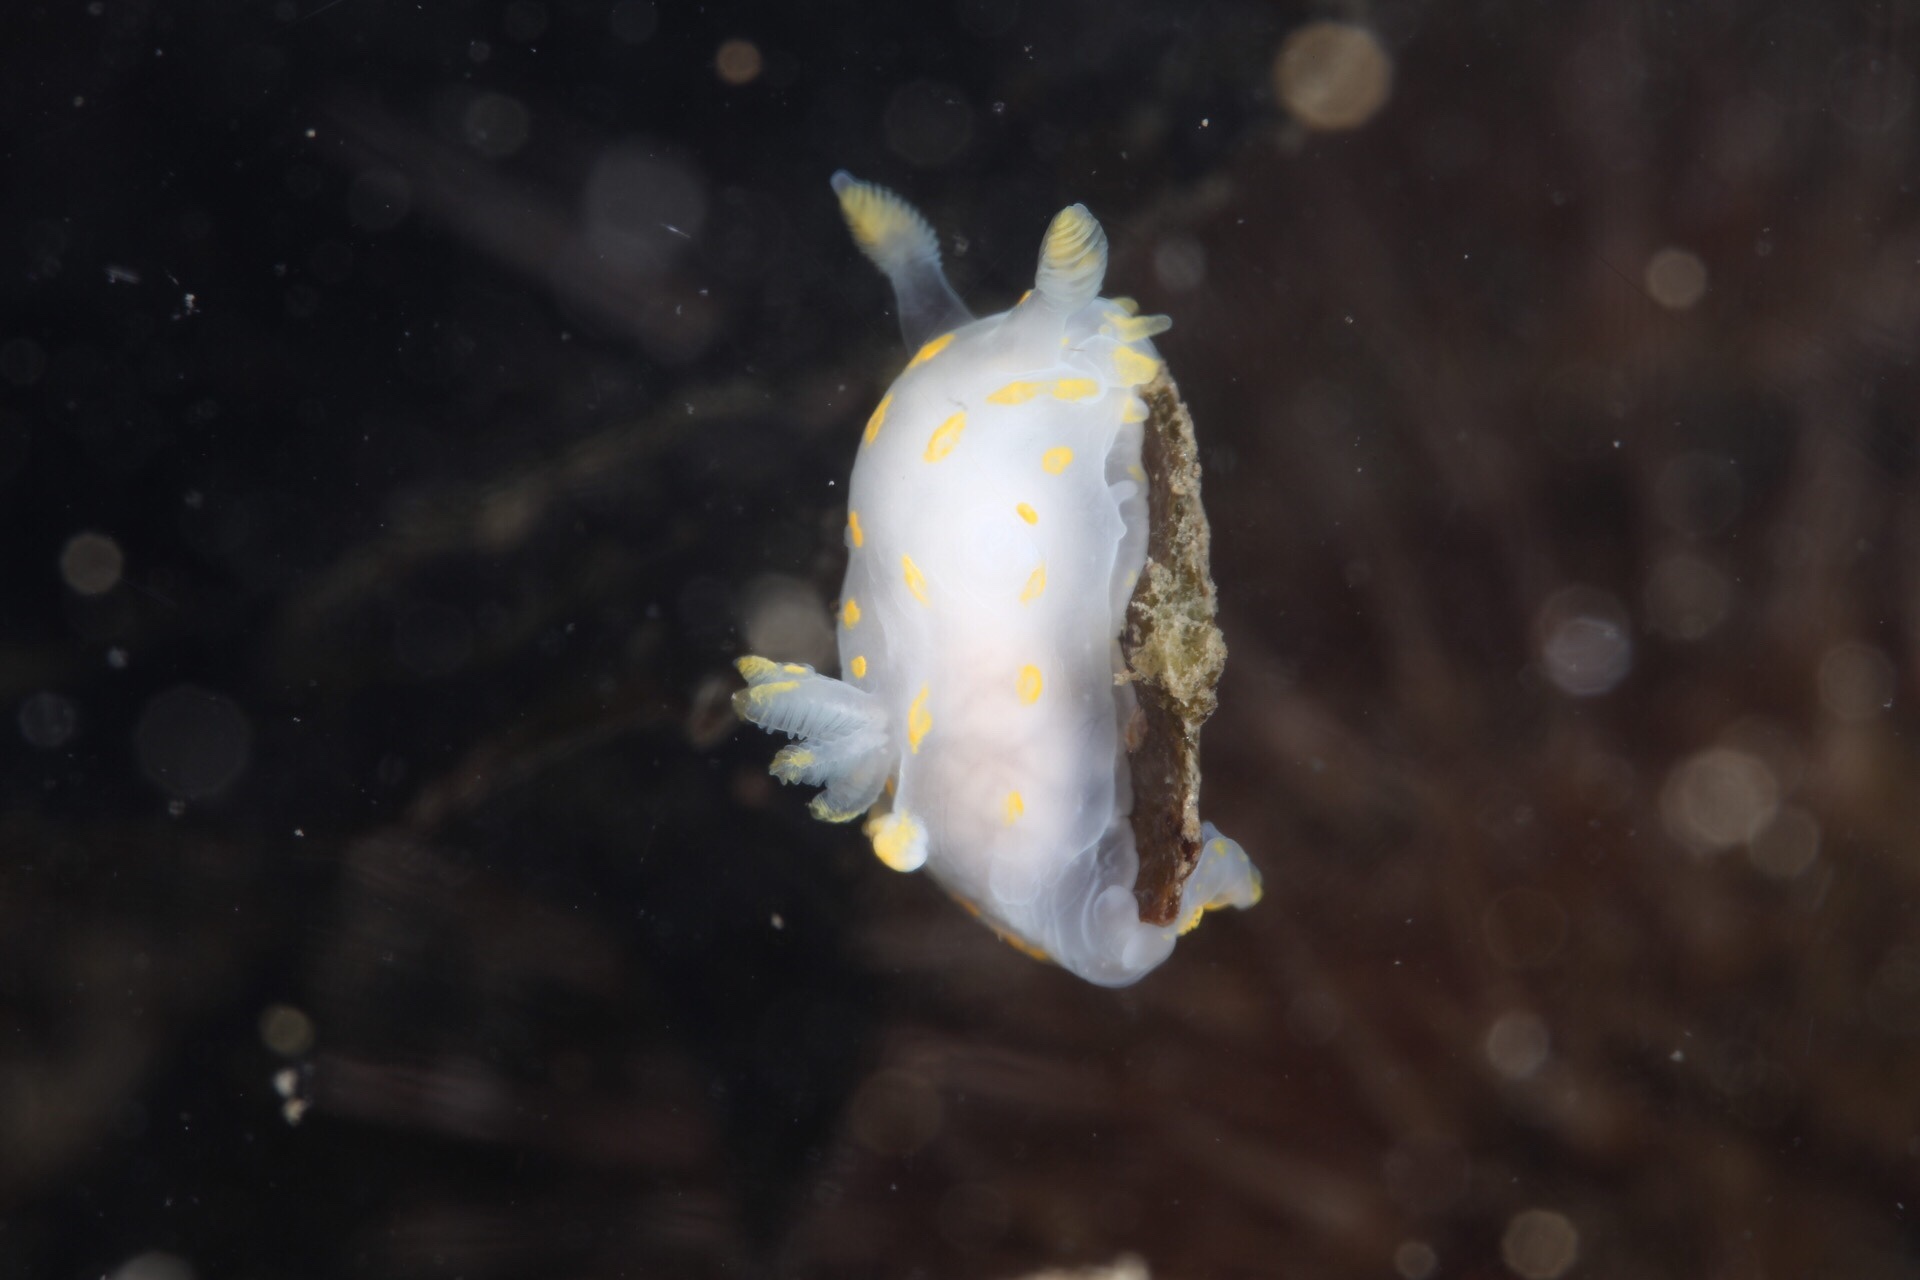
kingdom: Animalia
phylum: Mollusca
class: Gastropoda
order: Nudibranchia
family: Polyceridae
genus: Polycera
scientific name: Polycera quadrilineata
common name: Four-striped polycera
